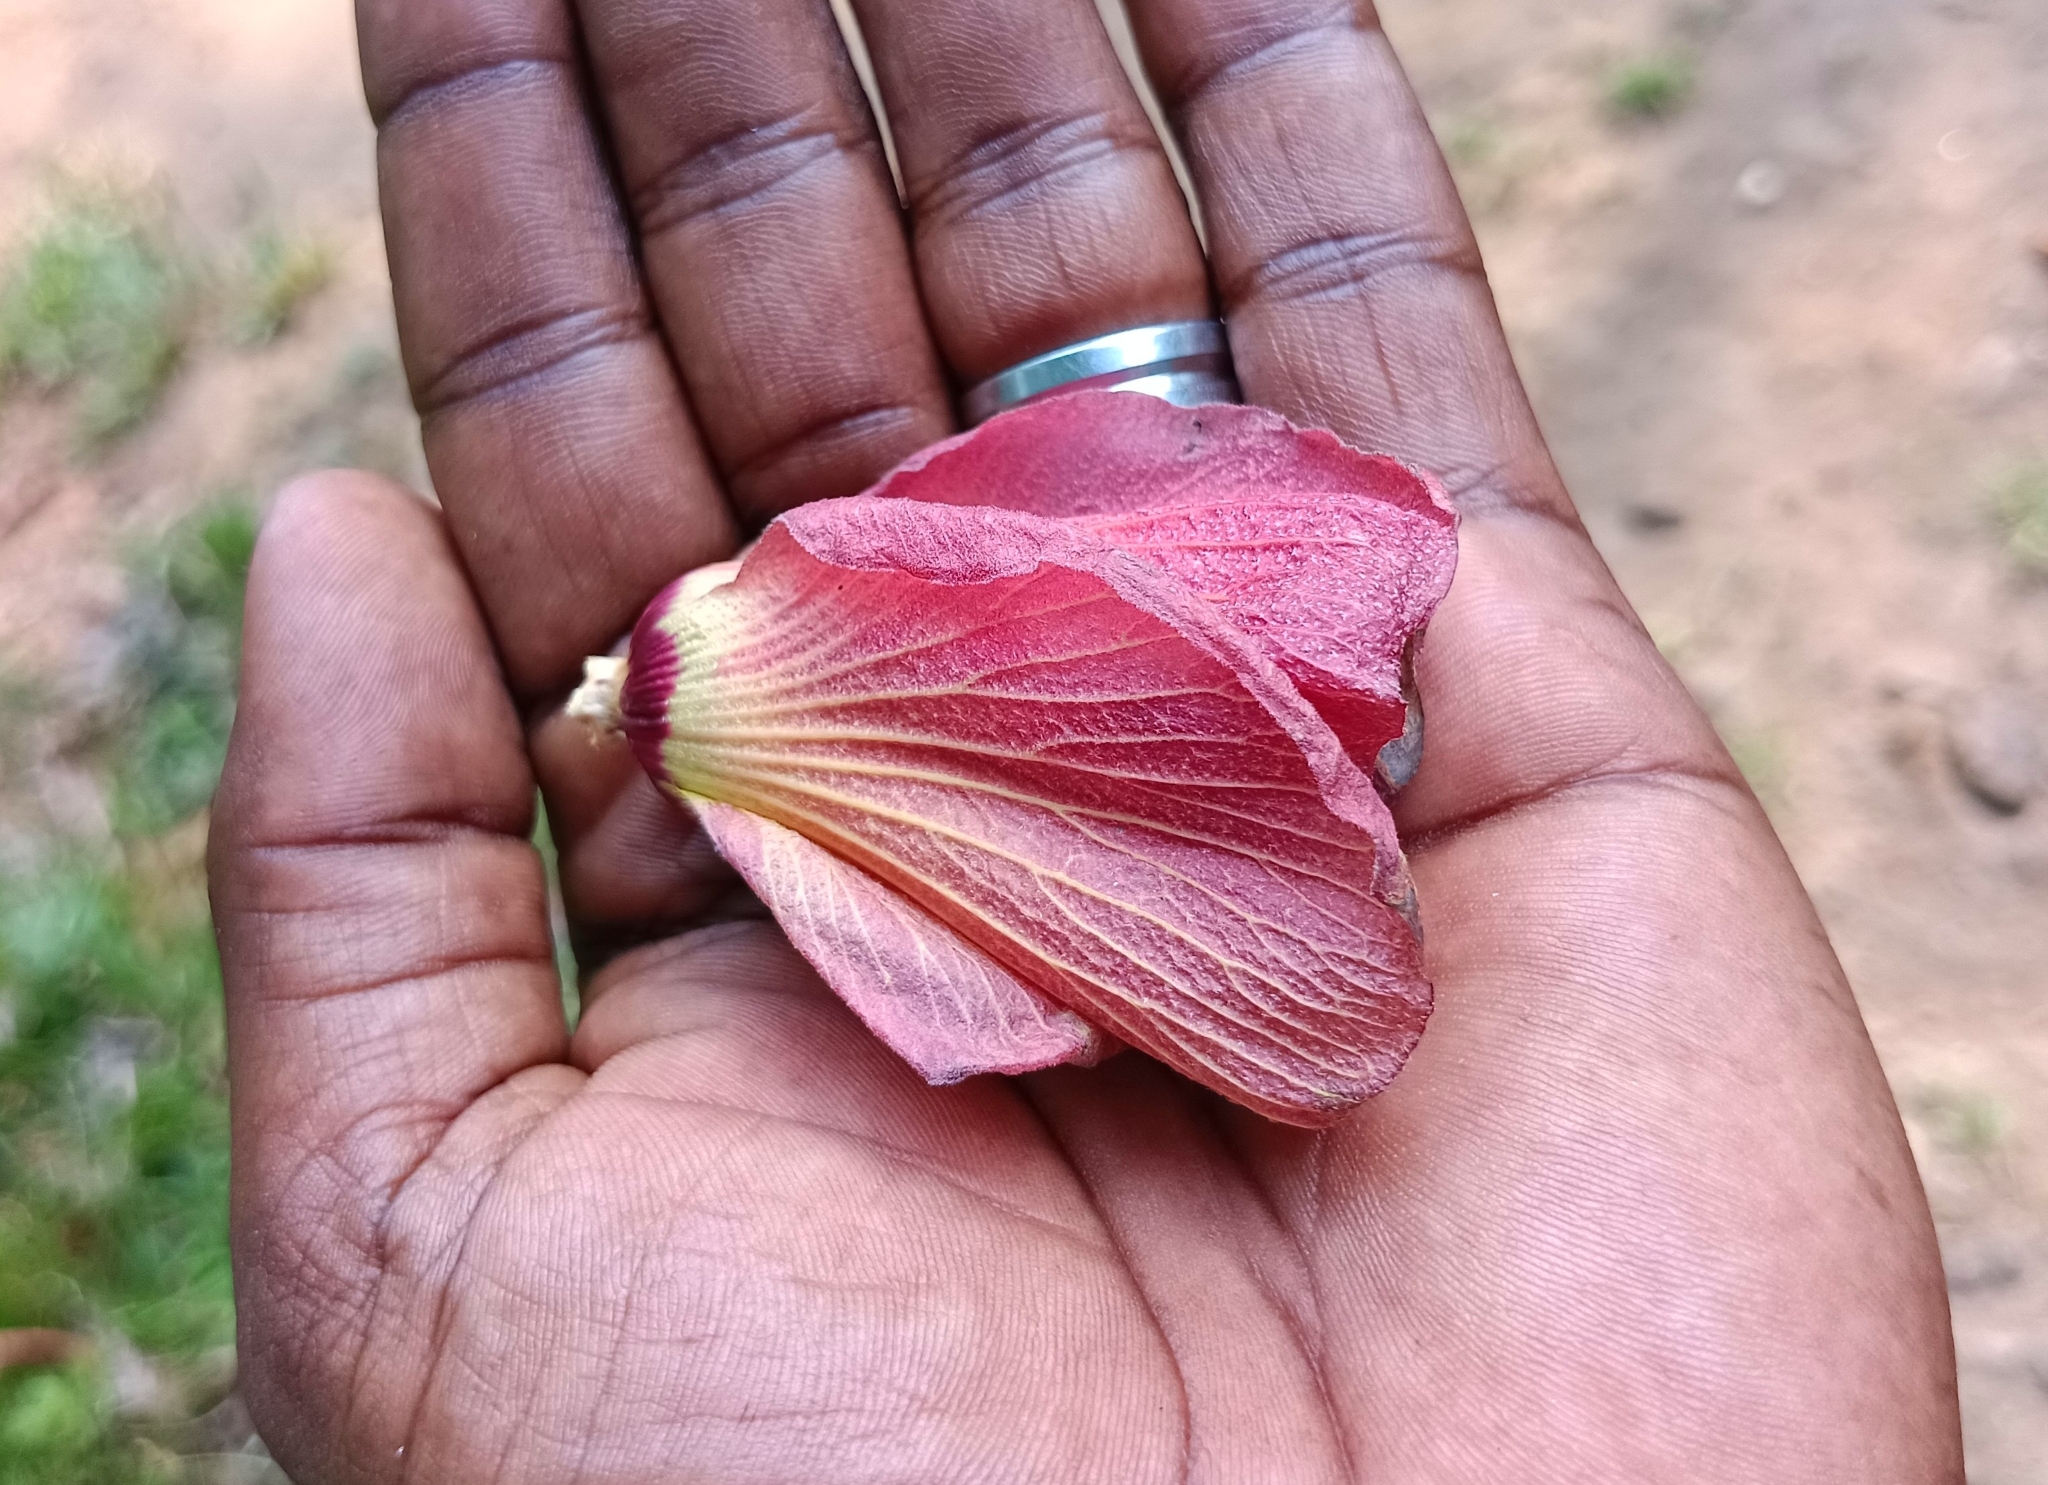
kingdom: Plantae
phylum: Tracheophyta
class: Magnoliopsida
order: Malvales
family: Malvaceae
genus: Talipariti
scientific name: Talipariti tiliaceum
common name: Sea hibiscus
